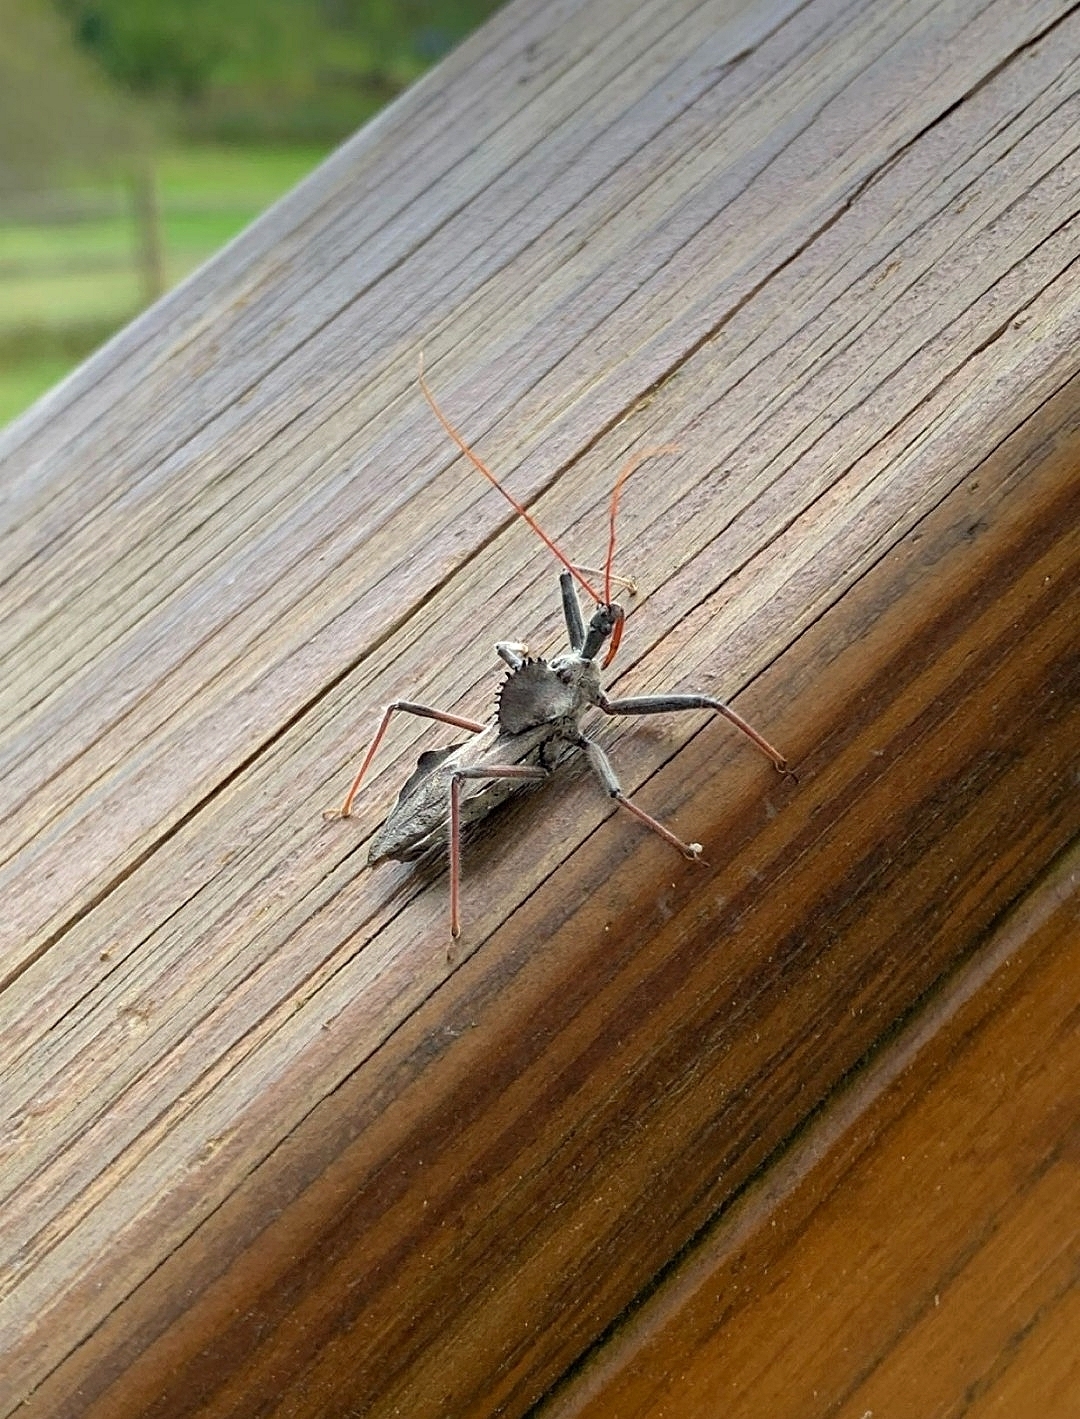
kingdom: Animalia
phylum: Arthropoda
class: Insecta
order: Hemiptera
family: Reduviidae
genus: Arilus
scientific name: Arilus cristatus
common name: North american wheel bug
